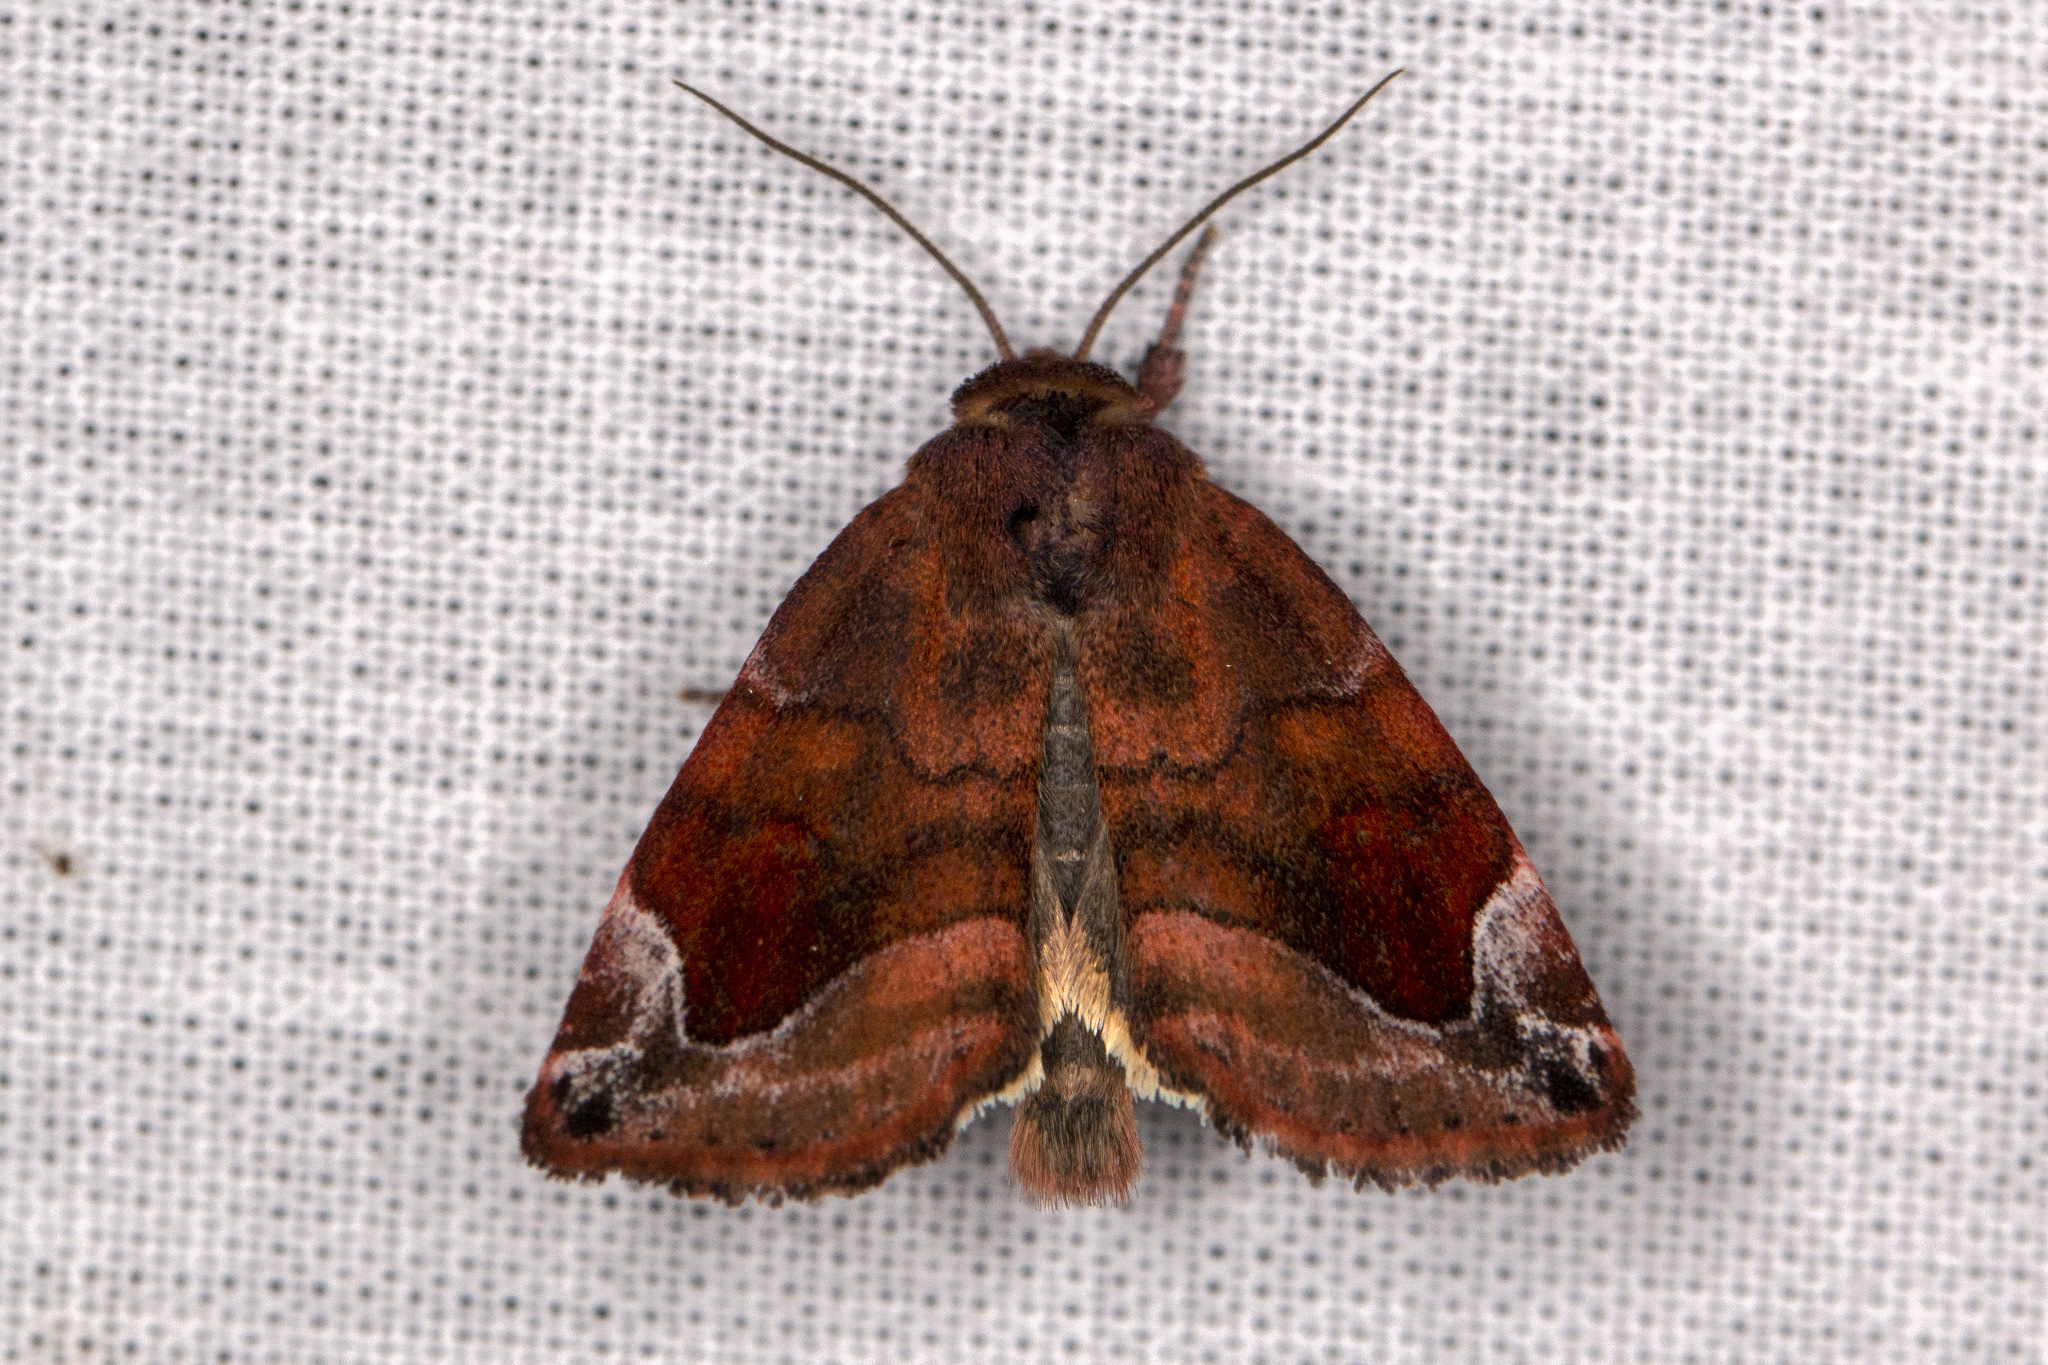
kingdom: Animalia
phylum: Arthropoda
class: Insecta
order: Lepidoptera
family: Noctuidae
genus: Cosmia
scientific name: Cosmia pyralina
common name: Lunar-spotted pinion
